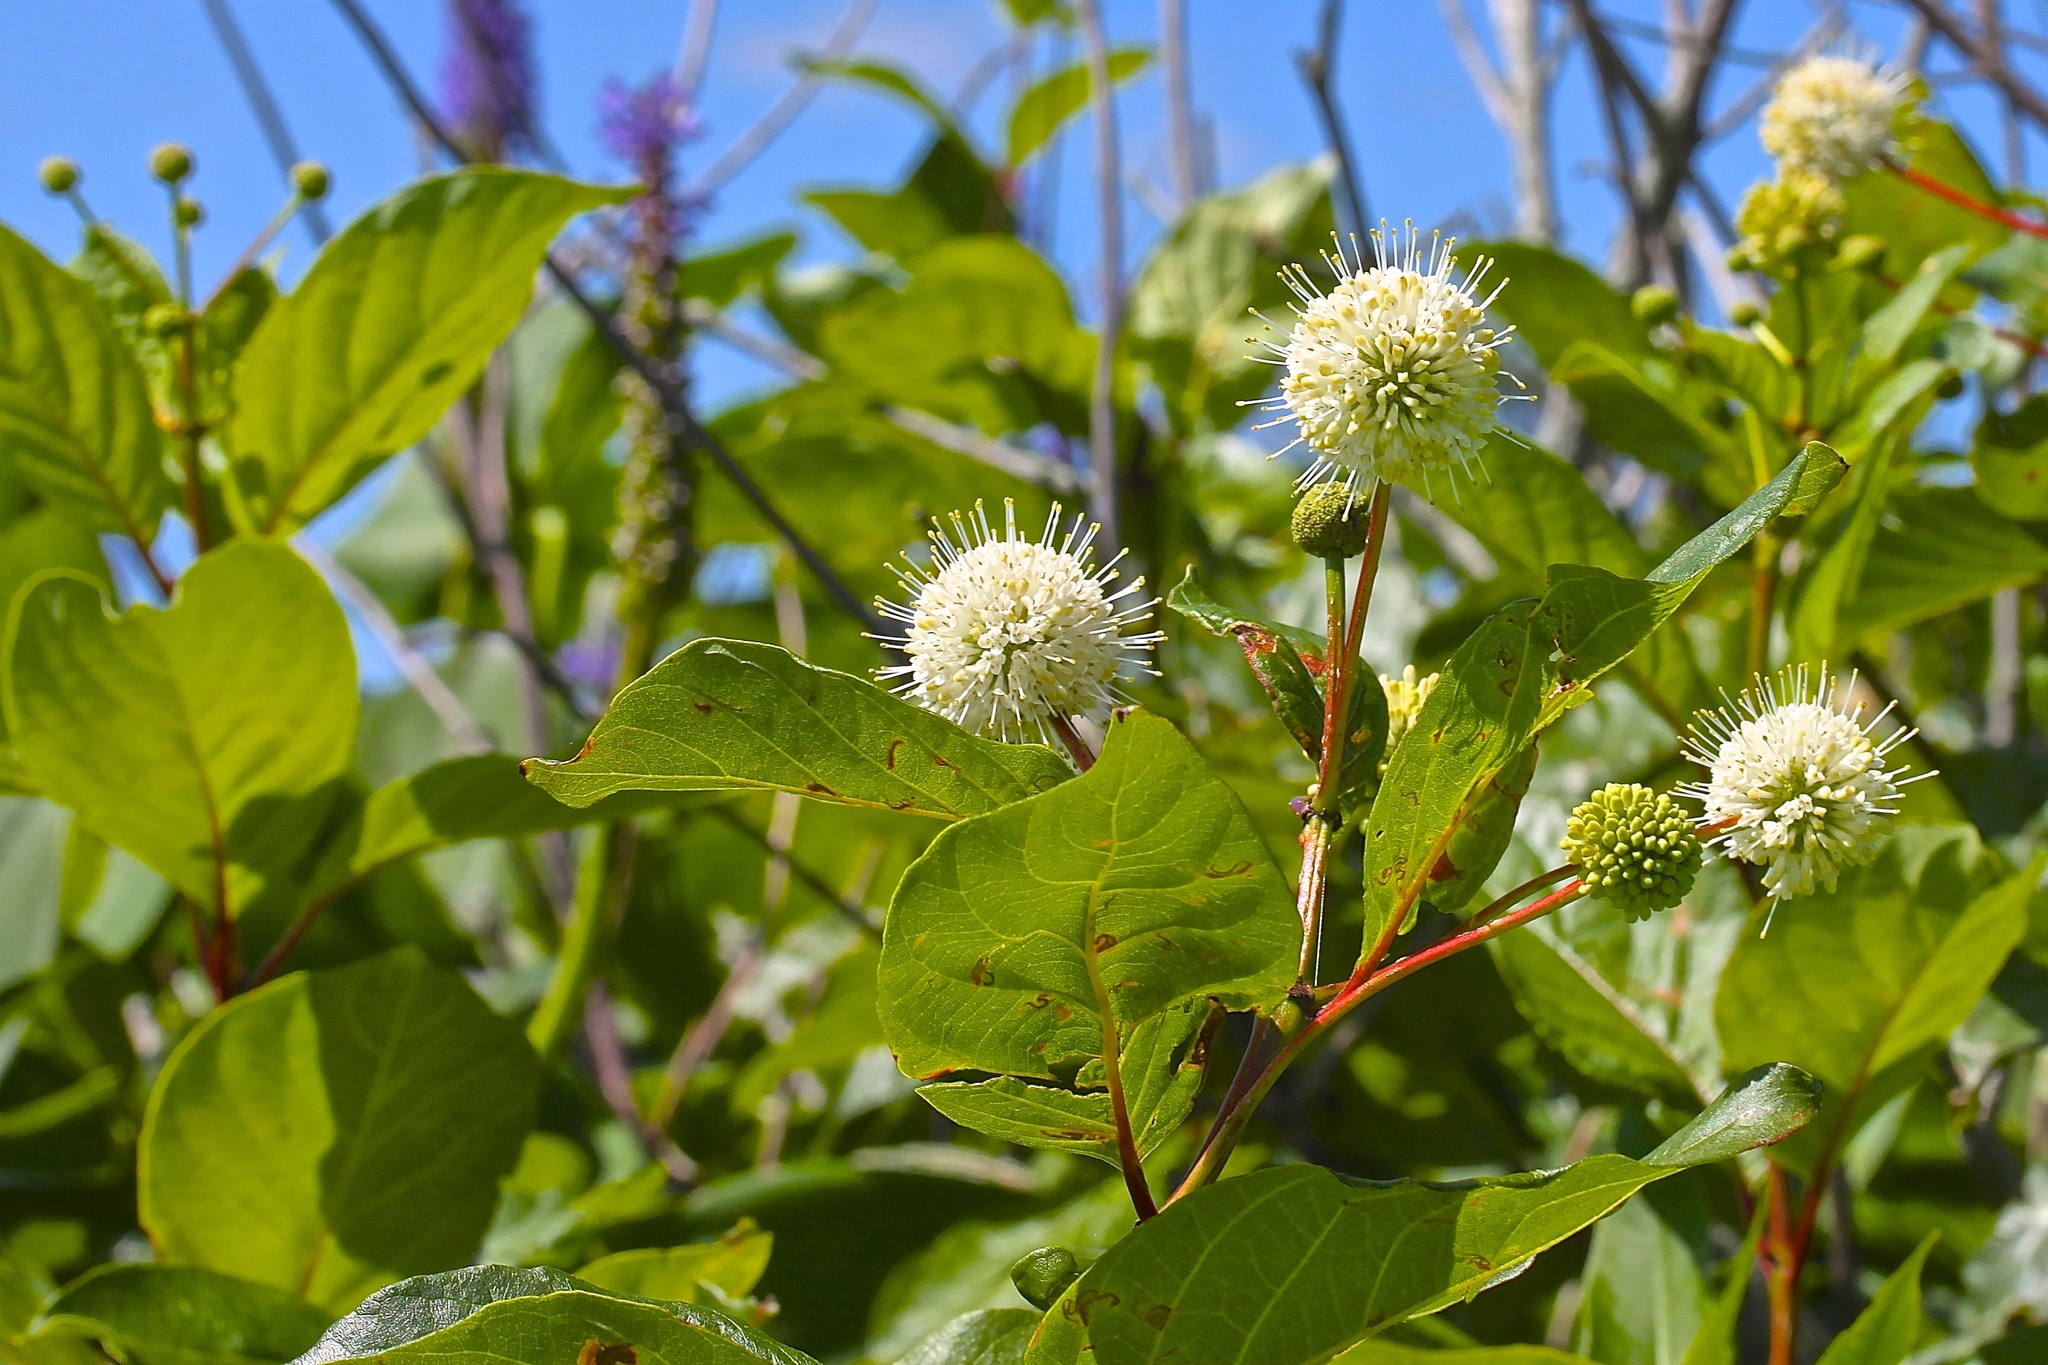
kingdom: Plantae
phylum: Tracheophyta
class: Magnoliopsida
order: Gentianales
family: Rubiaceae
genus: Cephalanthus
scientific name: Cephalanthus occidentalis
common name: Button-willow
